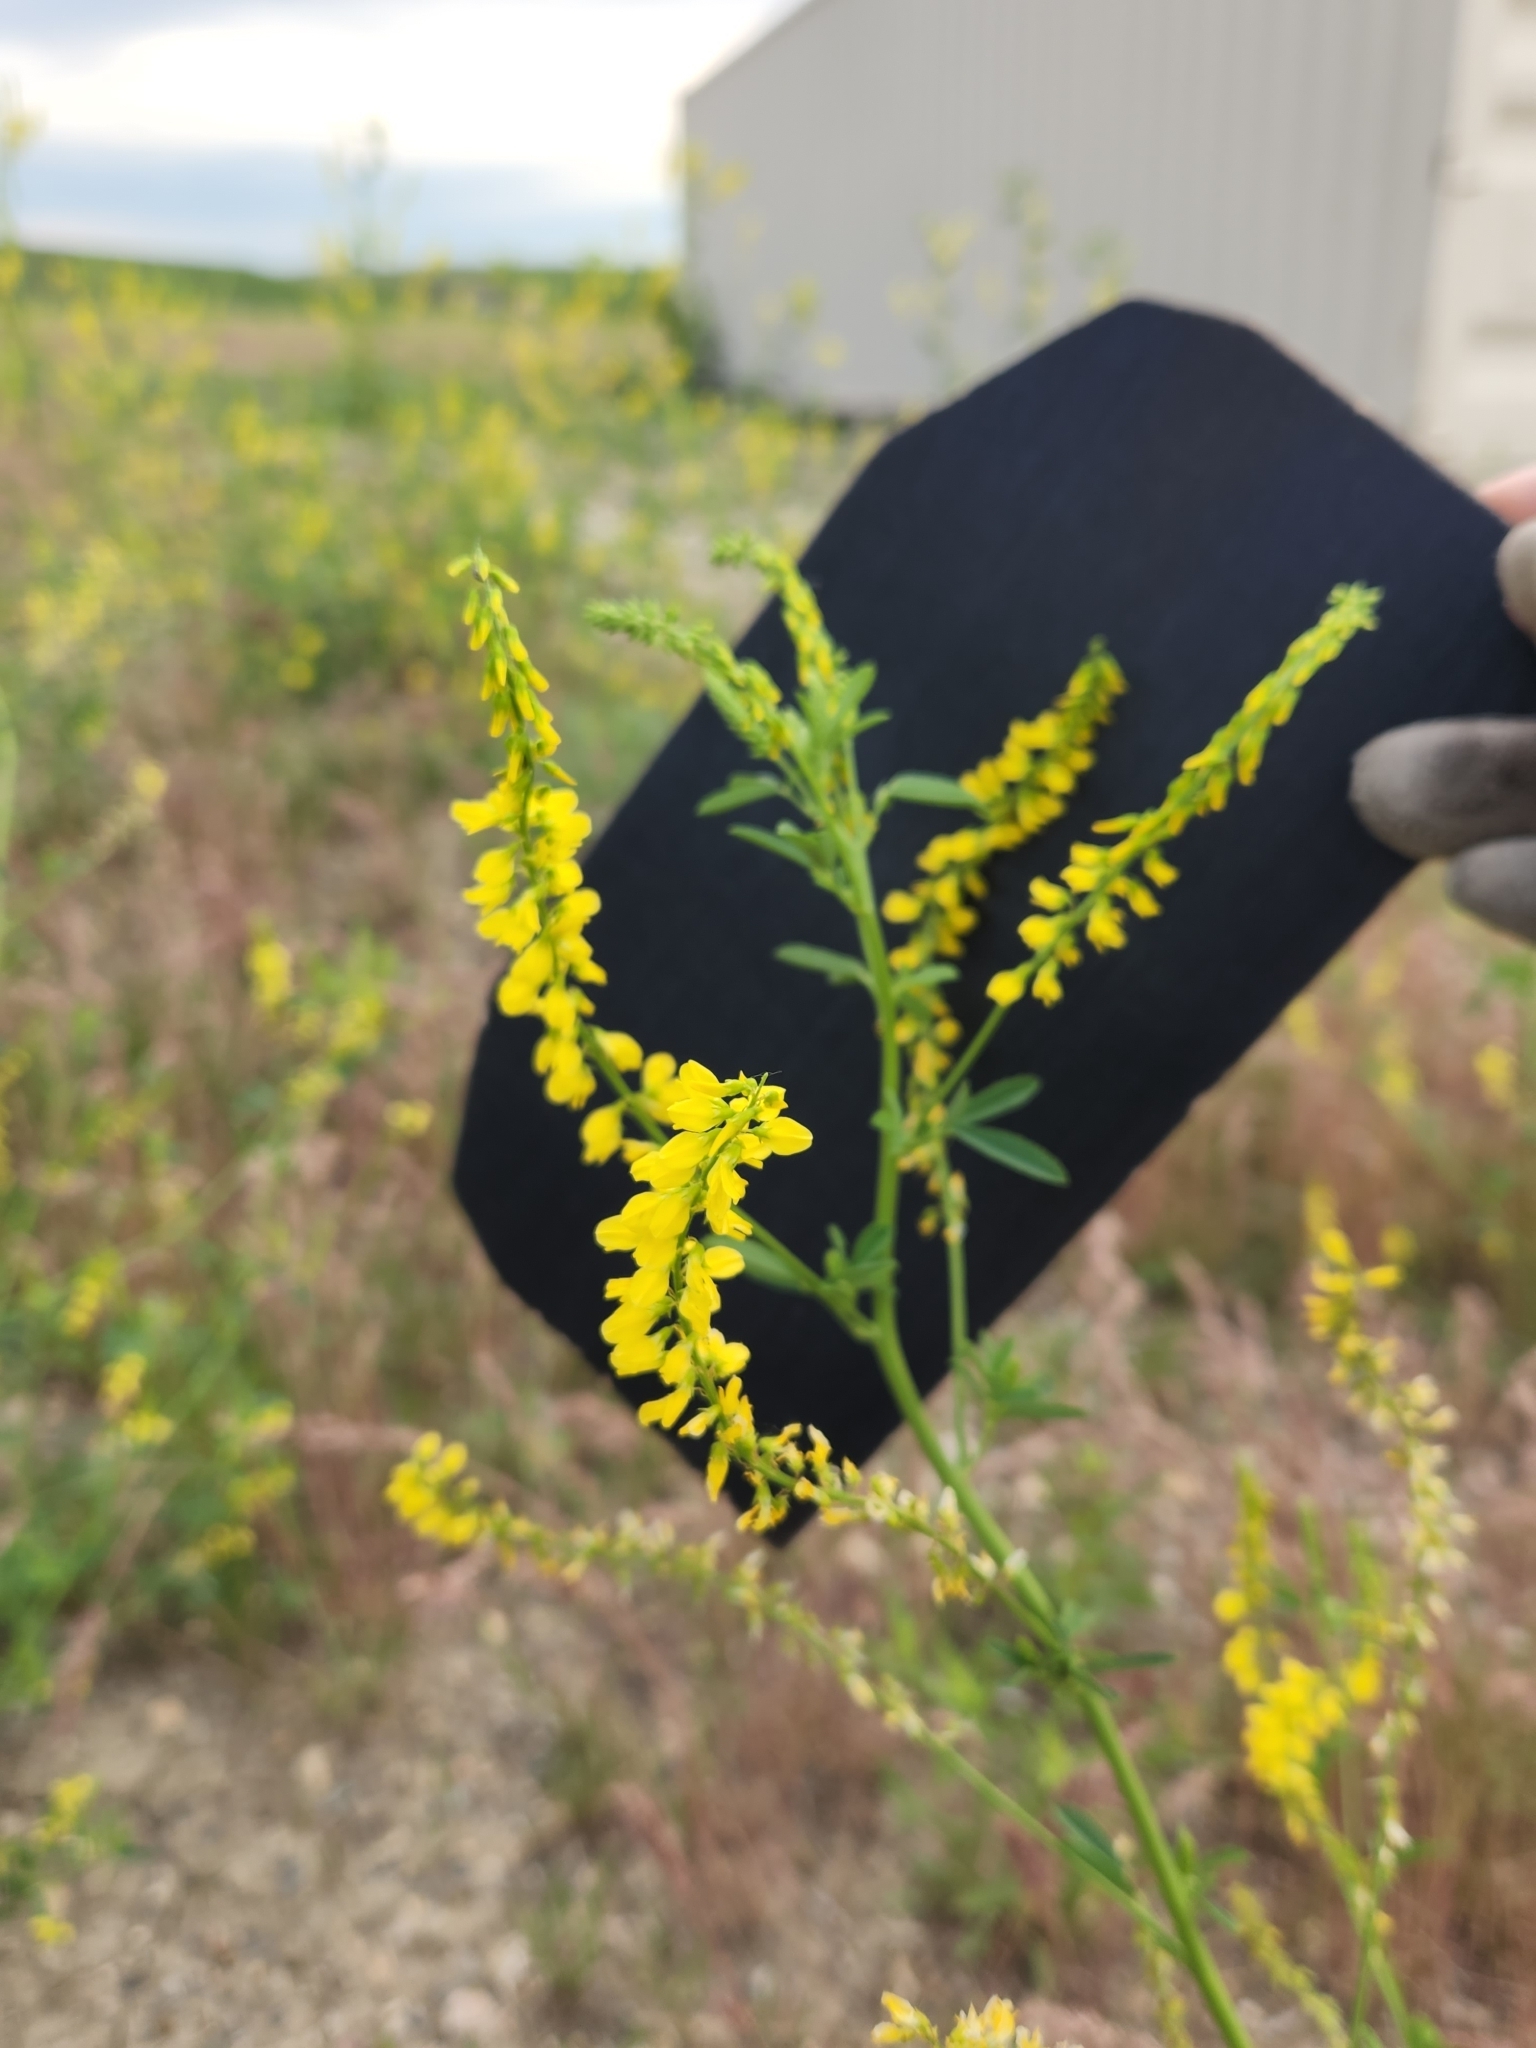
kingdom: Plantae
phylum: Tracheophyta
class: Magnoliopsida
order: Fabales
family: Fabaceae
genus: Melilotus
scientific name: Melilotus officinalis
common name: Sweetclover
